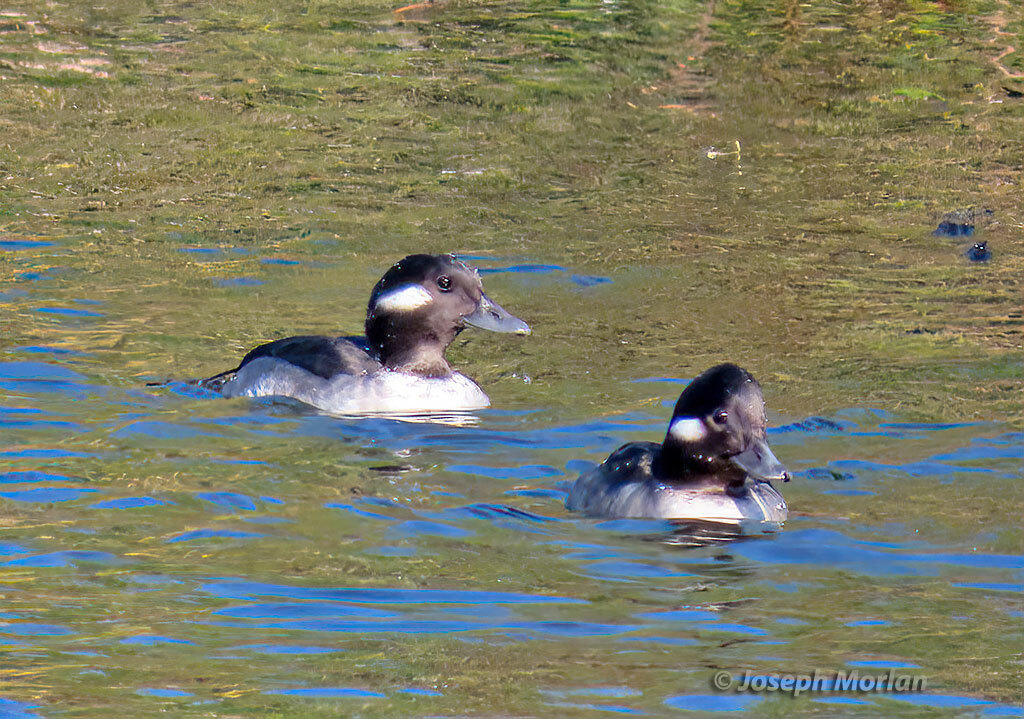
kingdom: Animalia
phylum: Chordata
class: Aves
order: Anseriformes
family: Anatidae
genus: Bucephala
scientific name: Bucephala albeola
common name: Bufflehead
